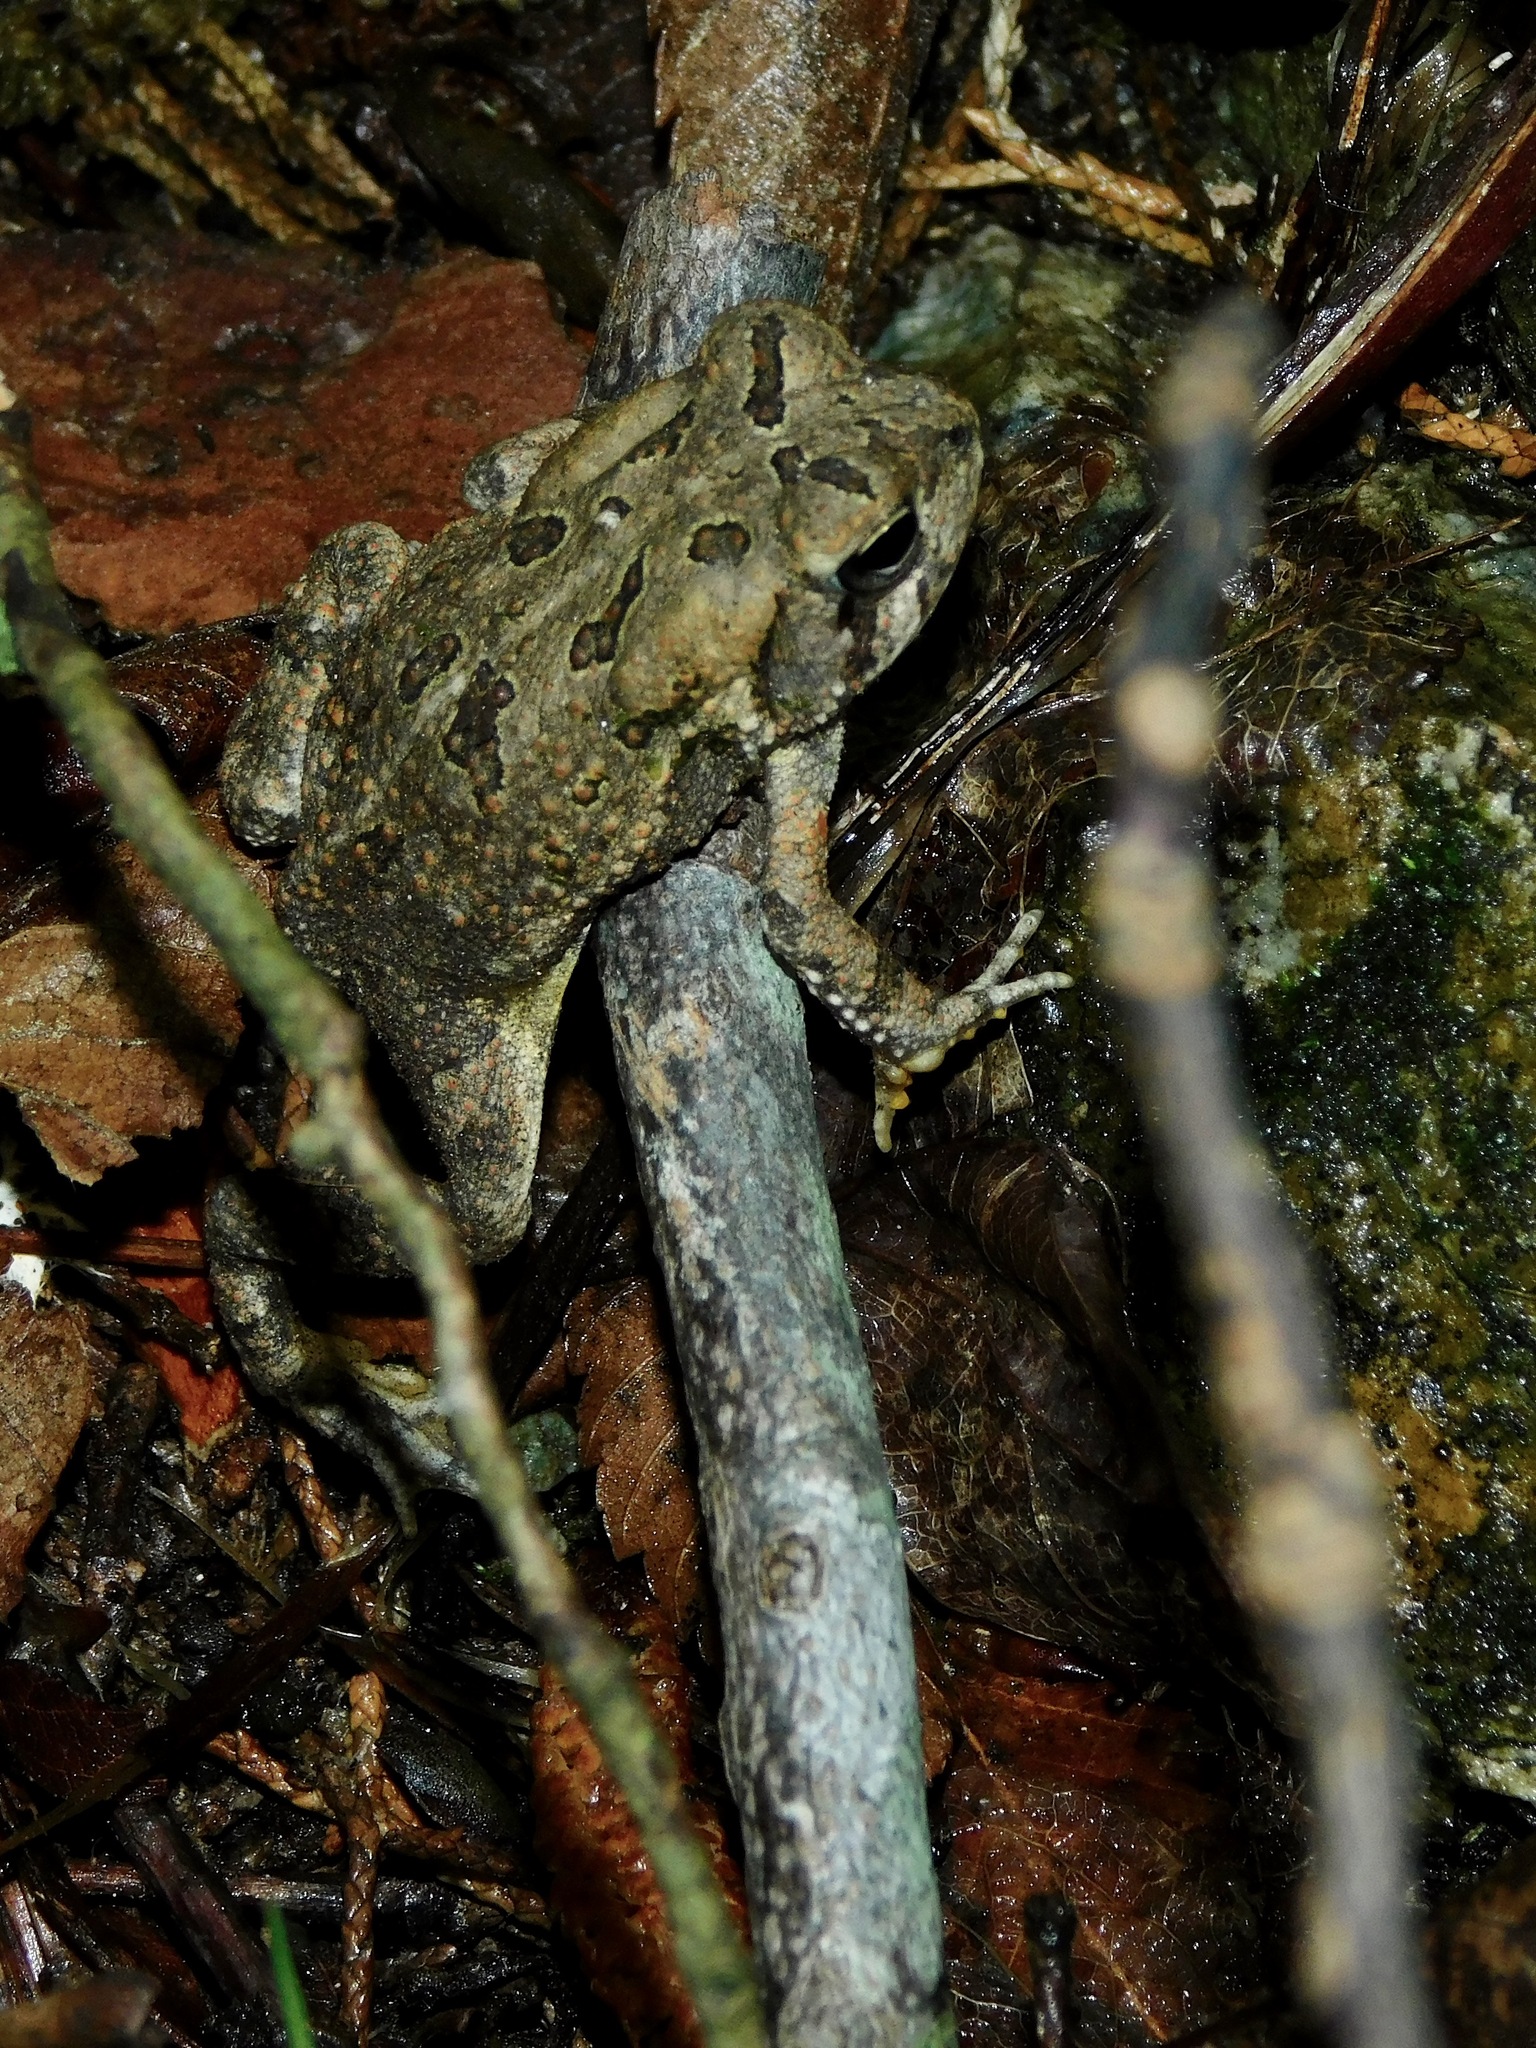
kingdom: Animalia
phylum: Chordata
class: Amphibia
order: Anura
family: Bufonidae
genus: Anaxyrus
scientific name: Anaxyrus fowleri
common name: Fowler's toad
